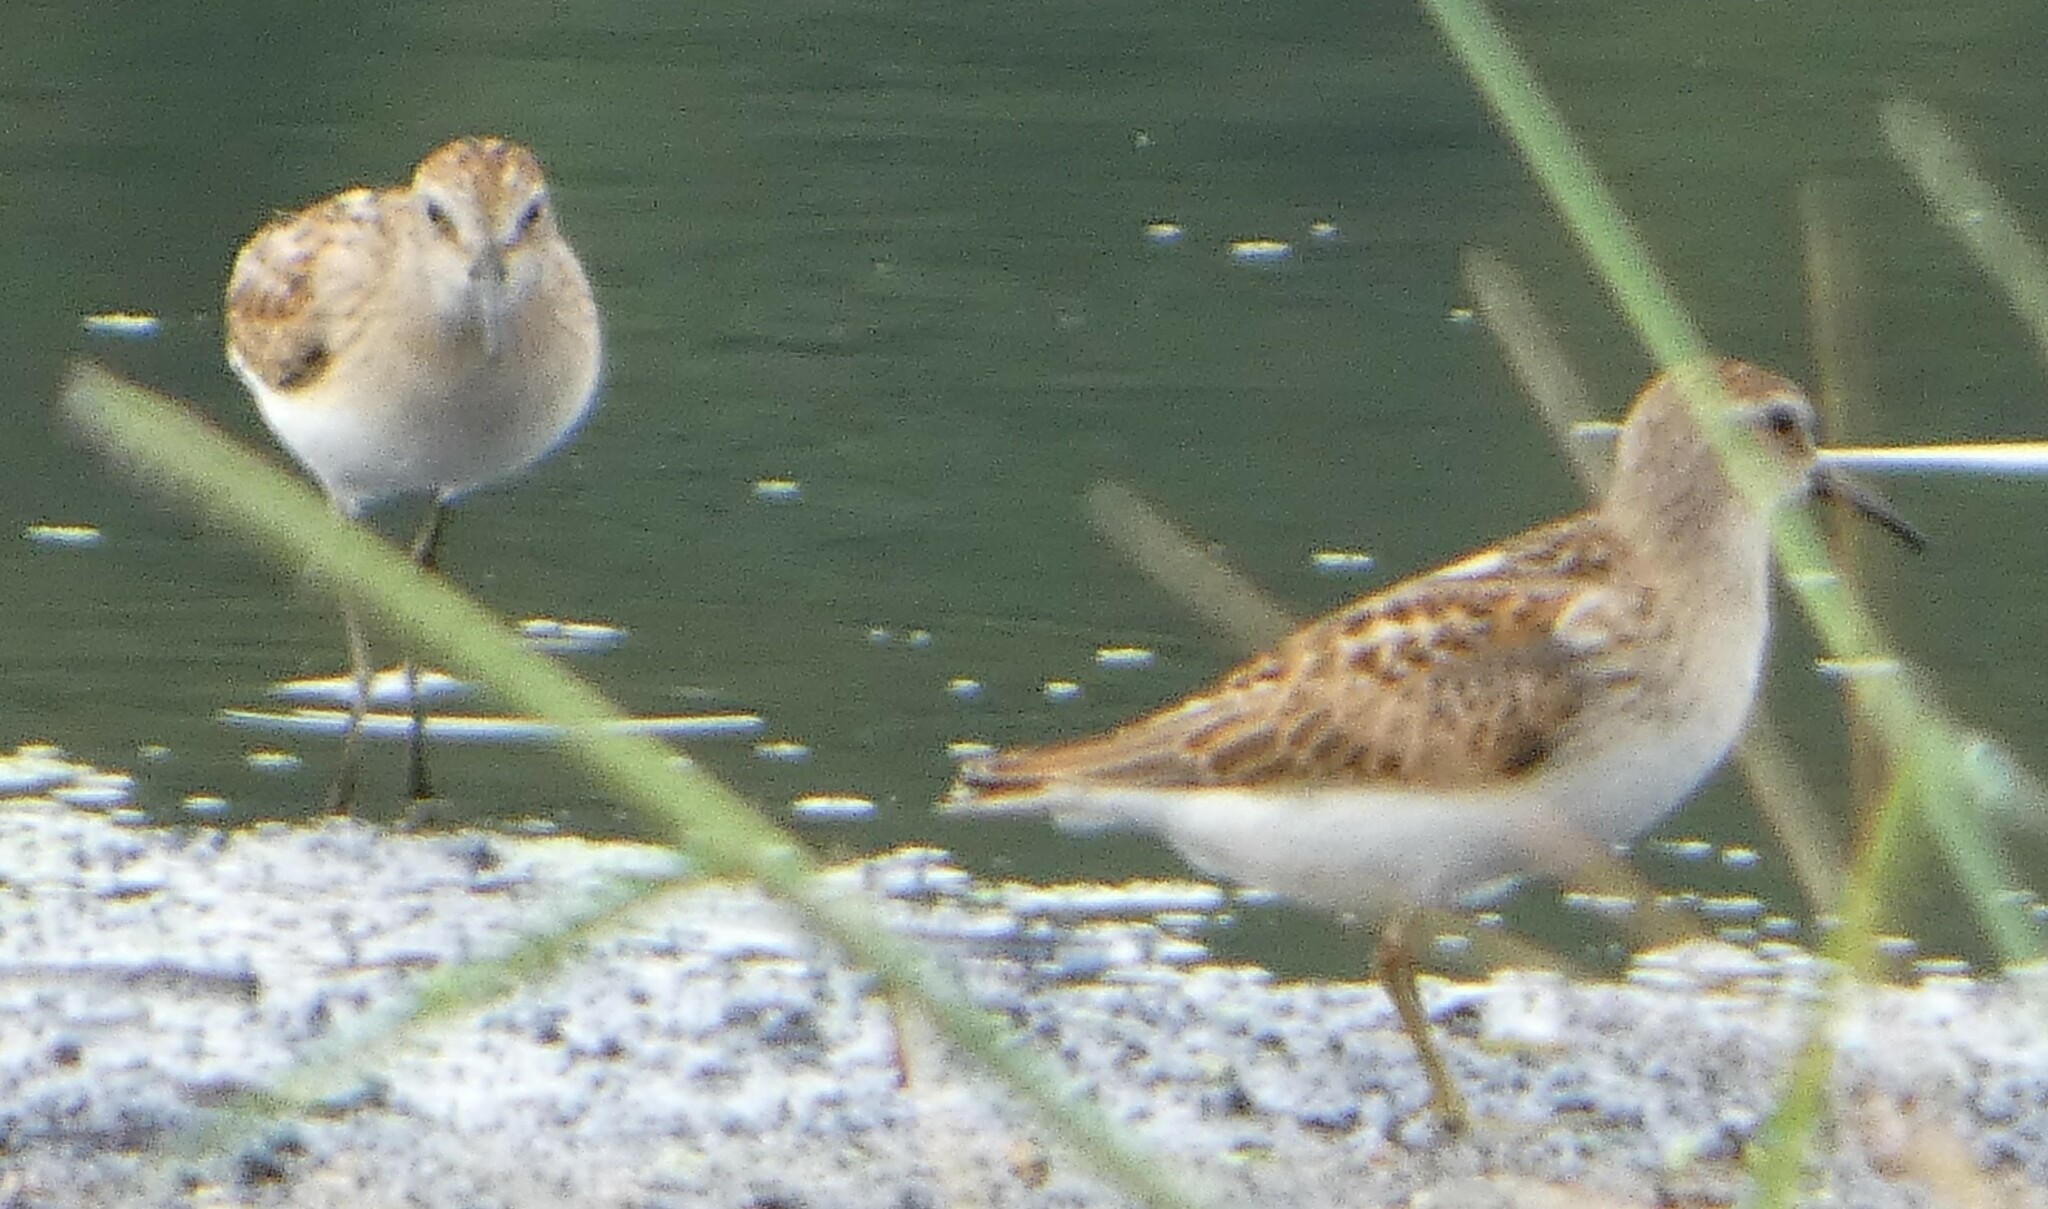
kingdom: Animalia
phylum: Chordata
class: Aves
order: Charadriiformes
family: Scolopacidae
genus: Calidris
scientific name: Calidris minutilla
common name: Least sandpiper
